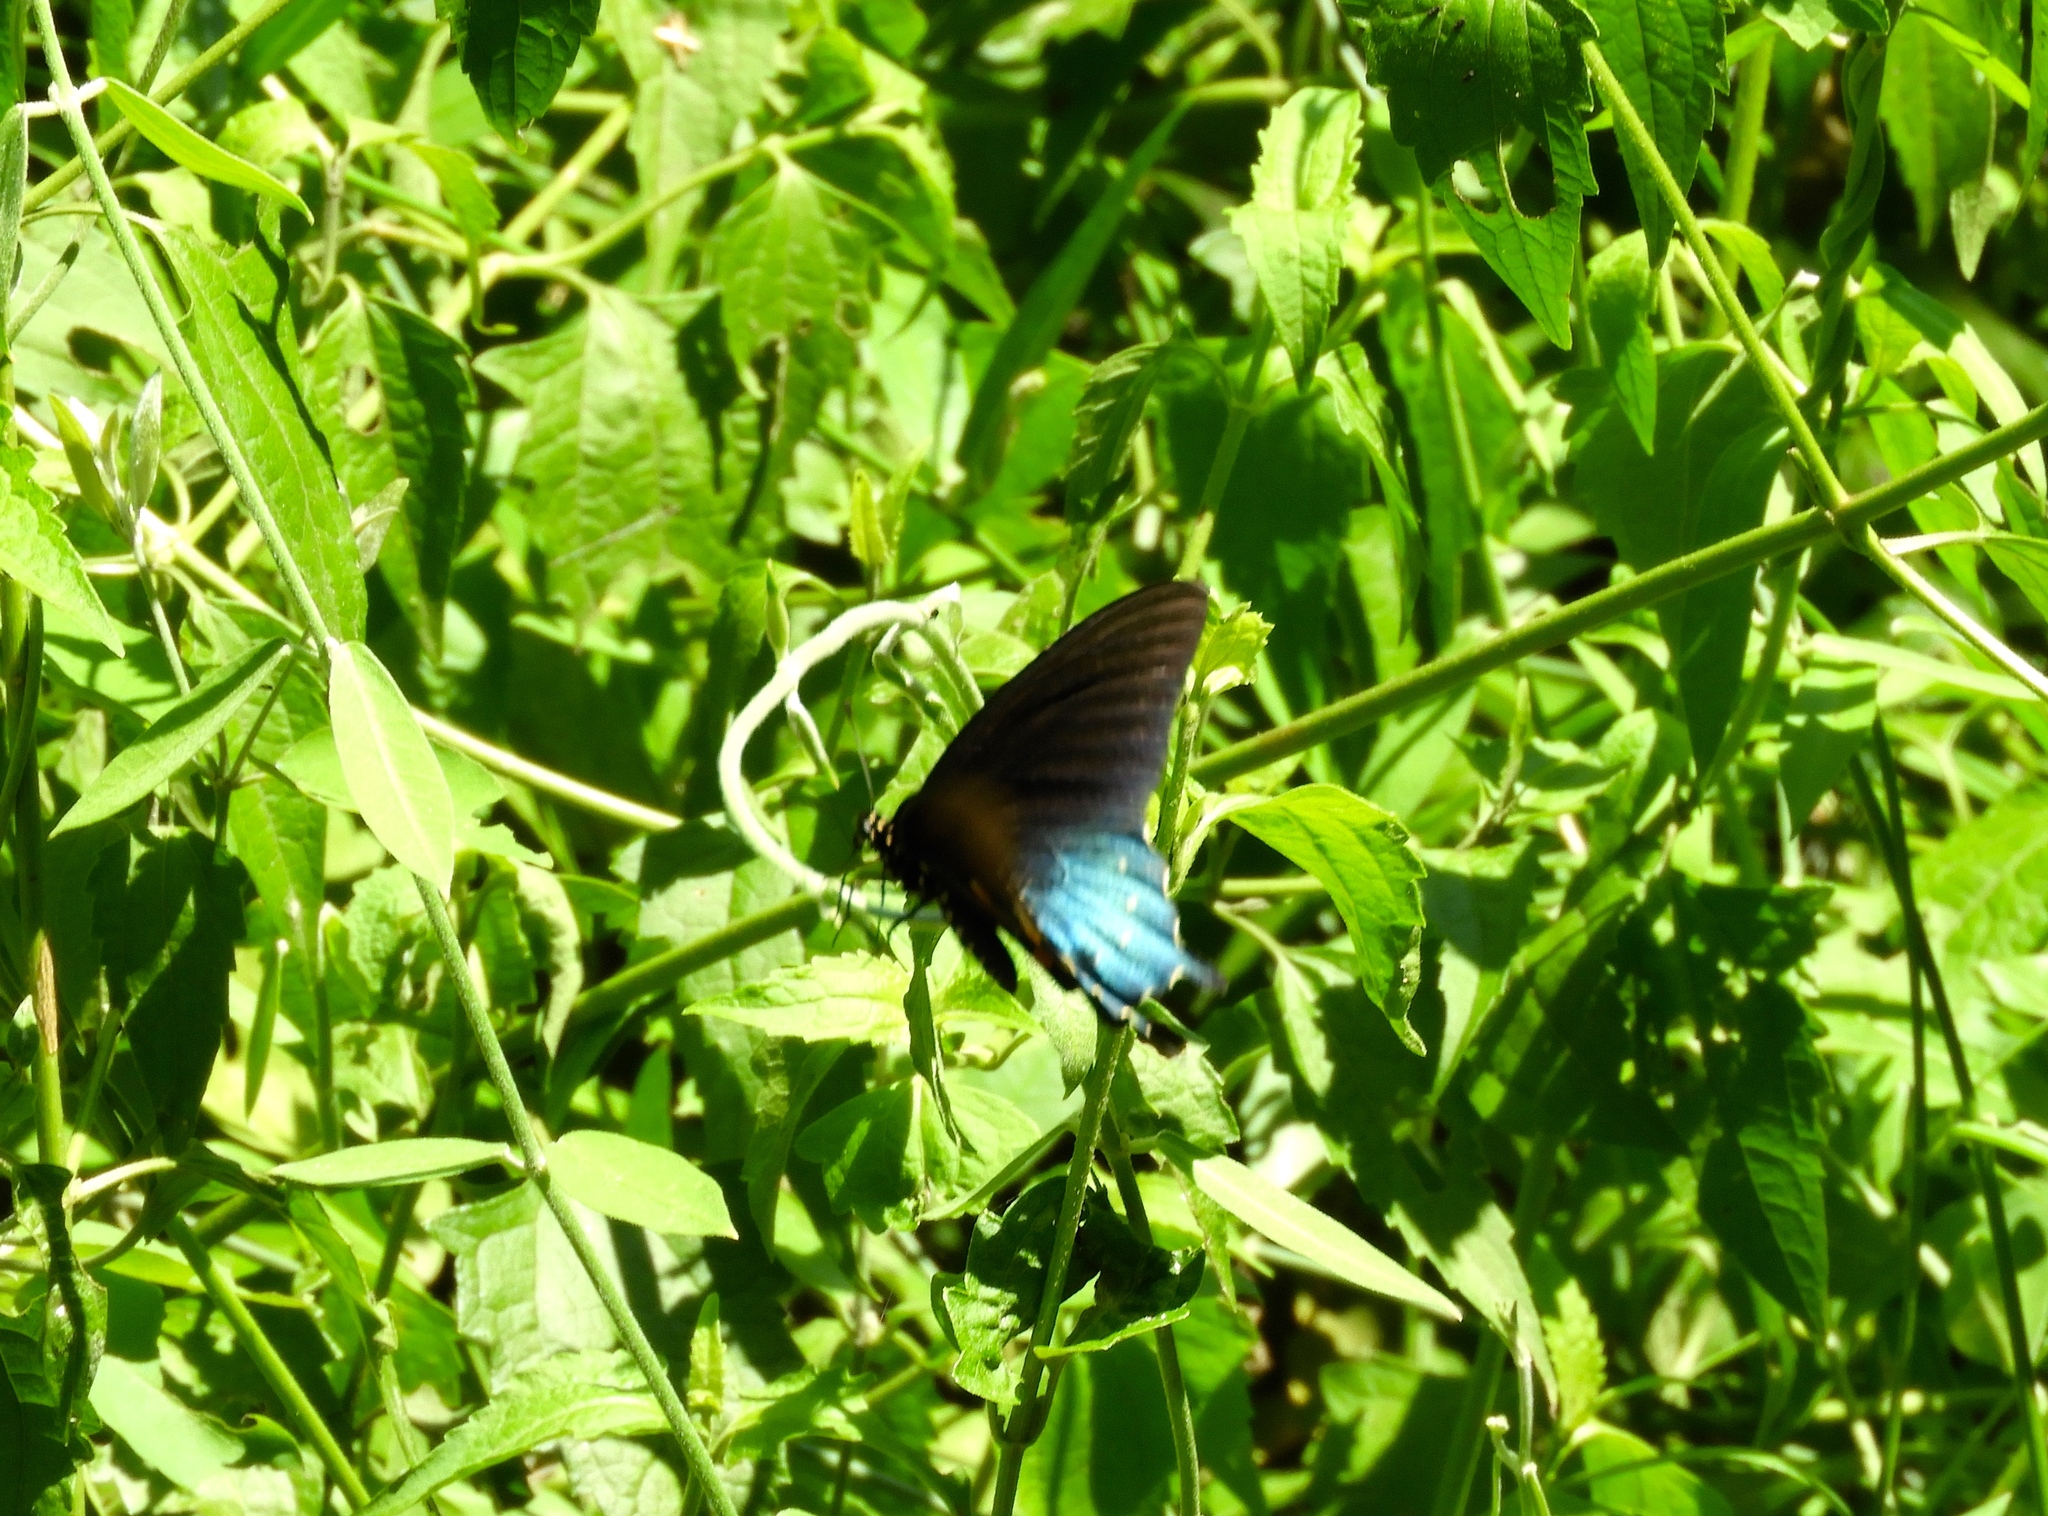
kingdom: Animalia
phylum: Arthropoda
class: Insecta
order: Lepidoptera
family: Papilionidae
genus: Battus
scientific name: Battus philenor
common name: Pipevine swallowtail
